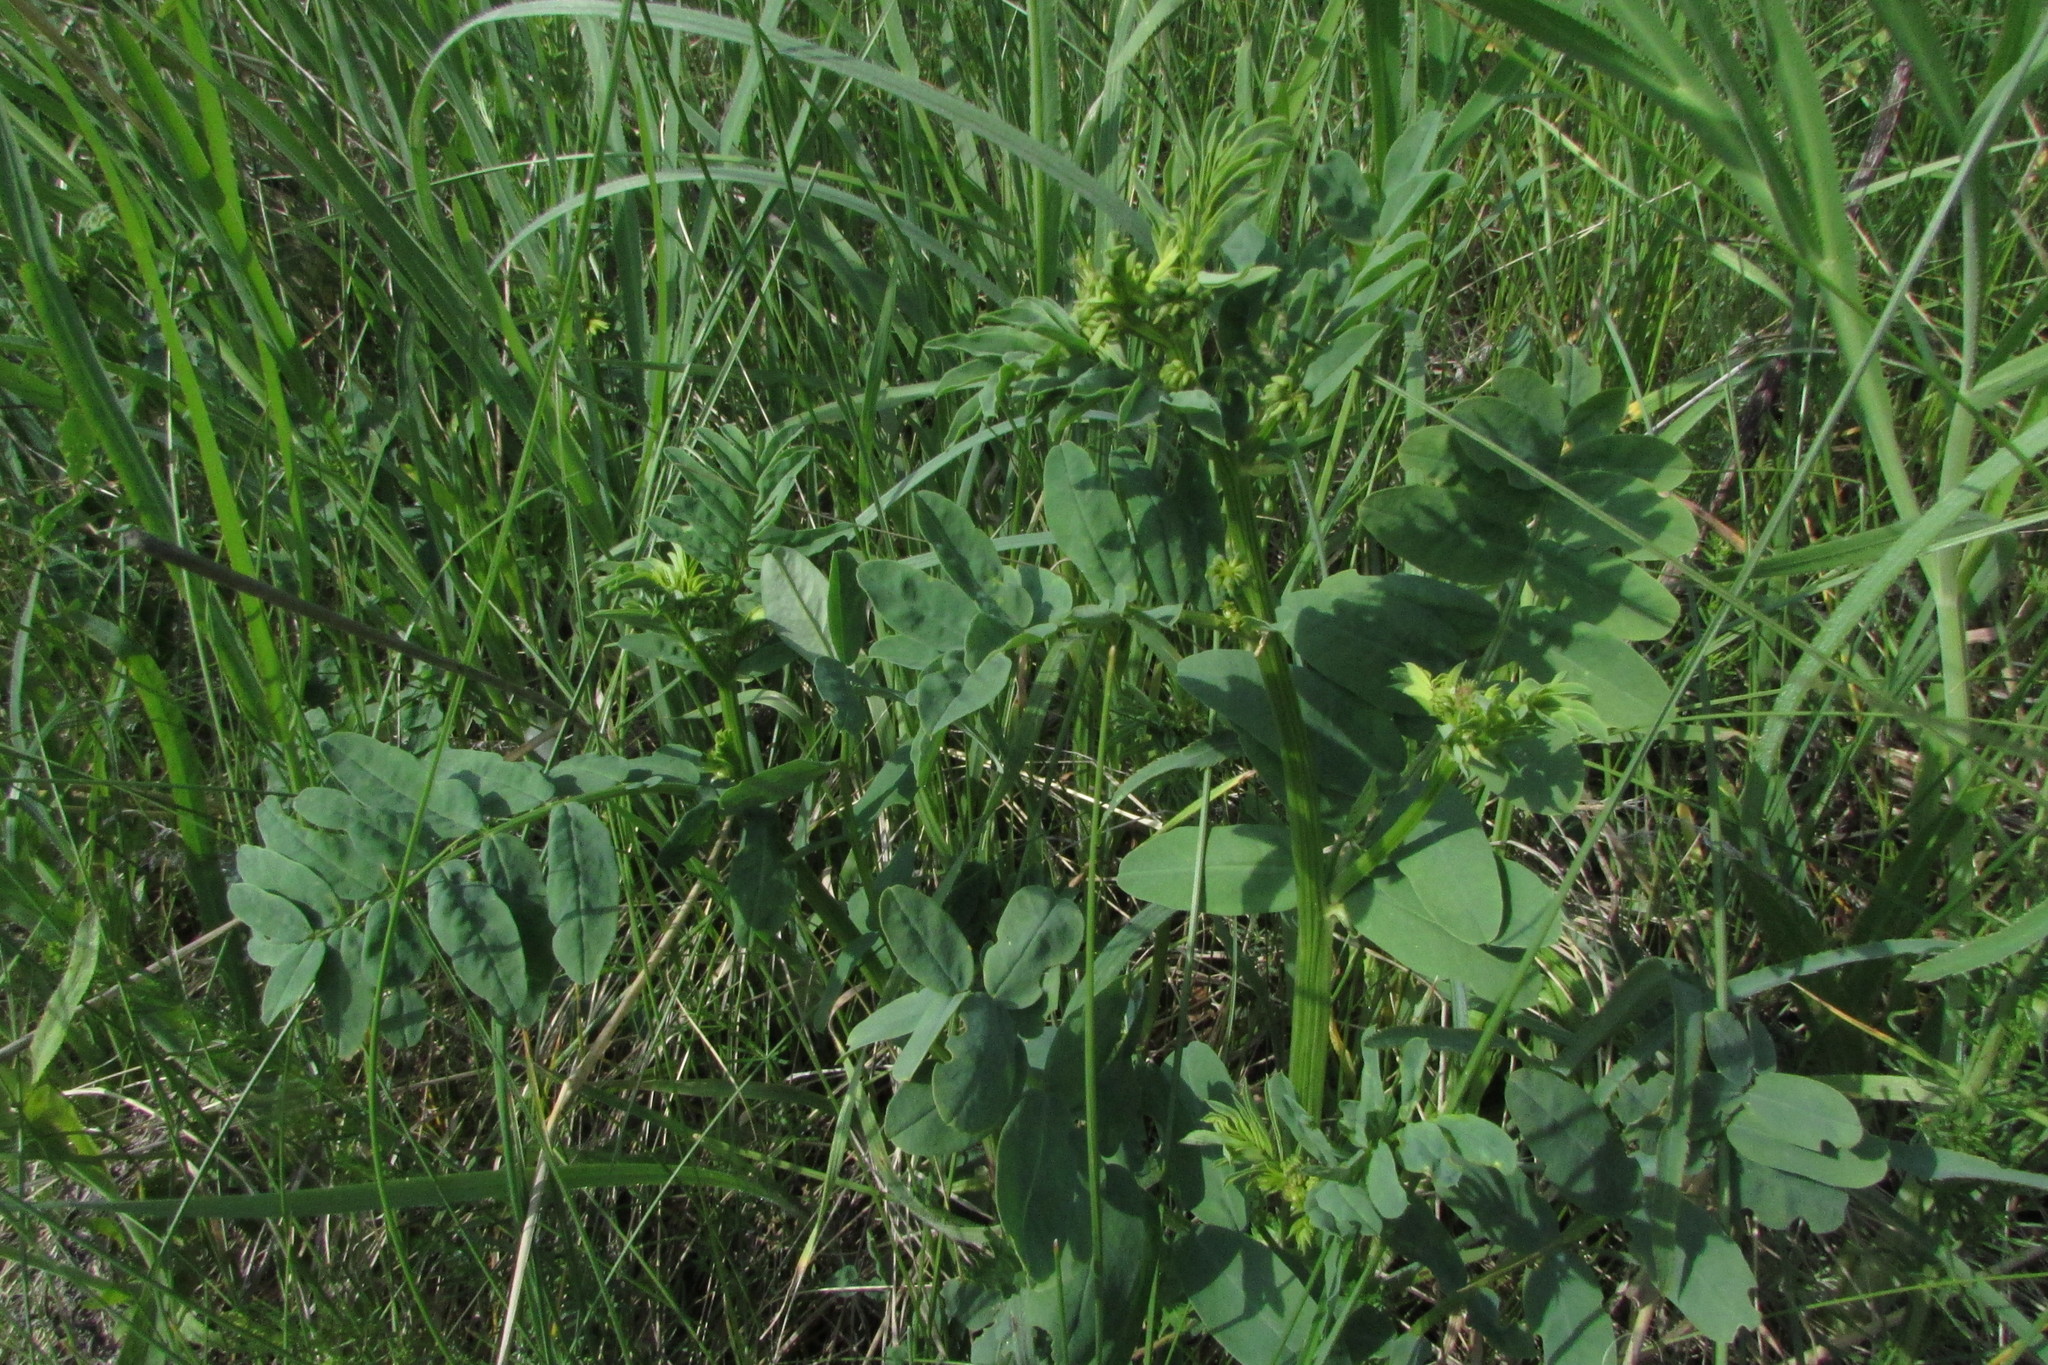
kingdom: Plantae
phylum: Tracheophyta
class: Magnoliopsida
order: Fabales
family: Fabaceae
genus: Coronilla
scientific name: Coronilla varia
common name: Crownvetch
